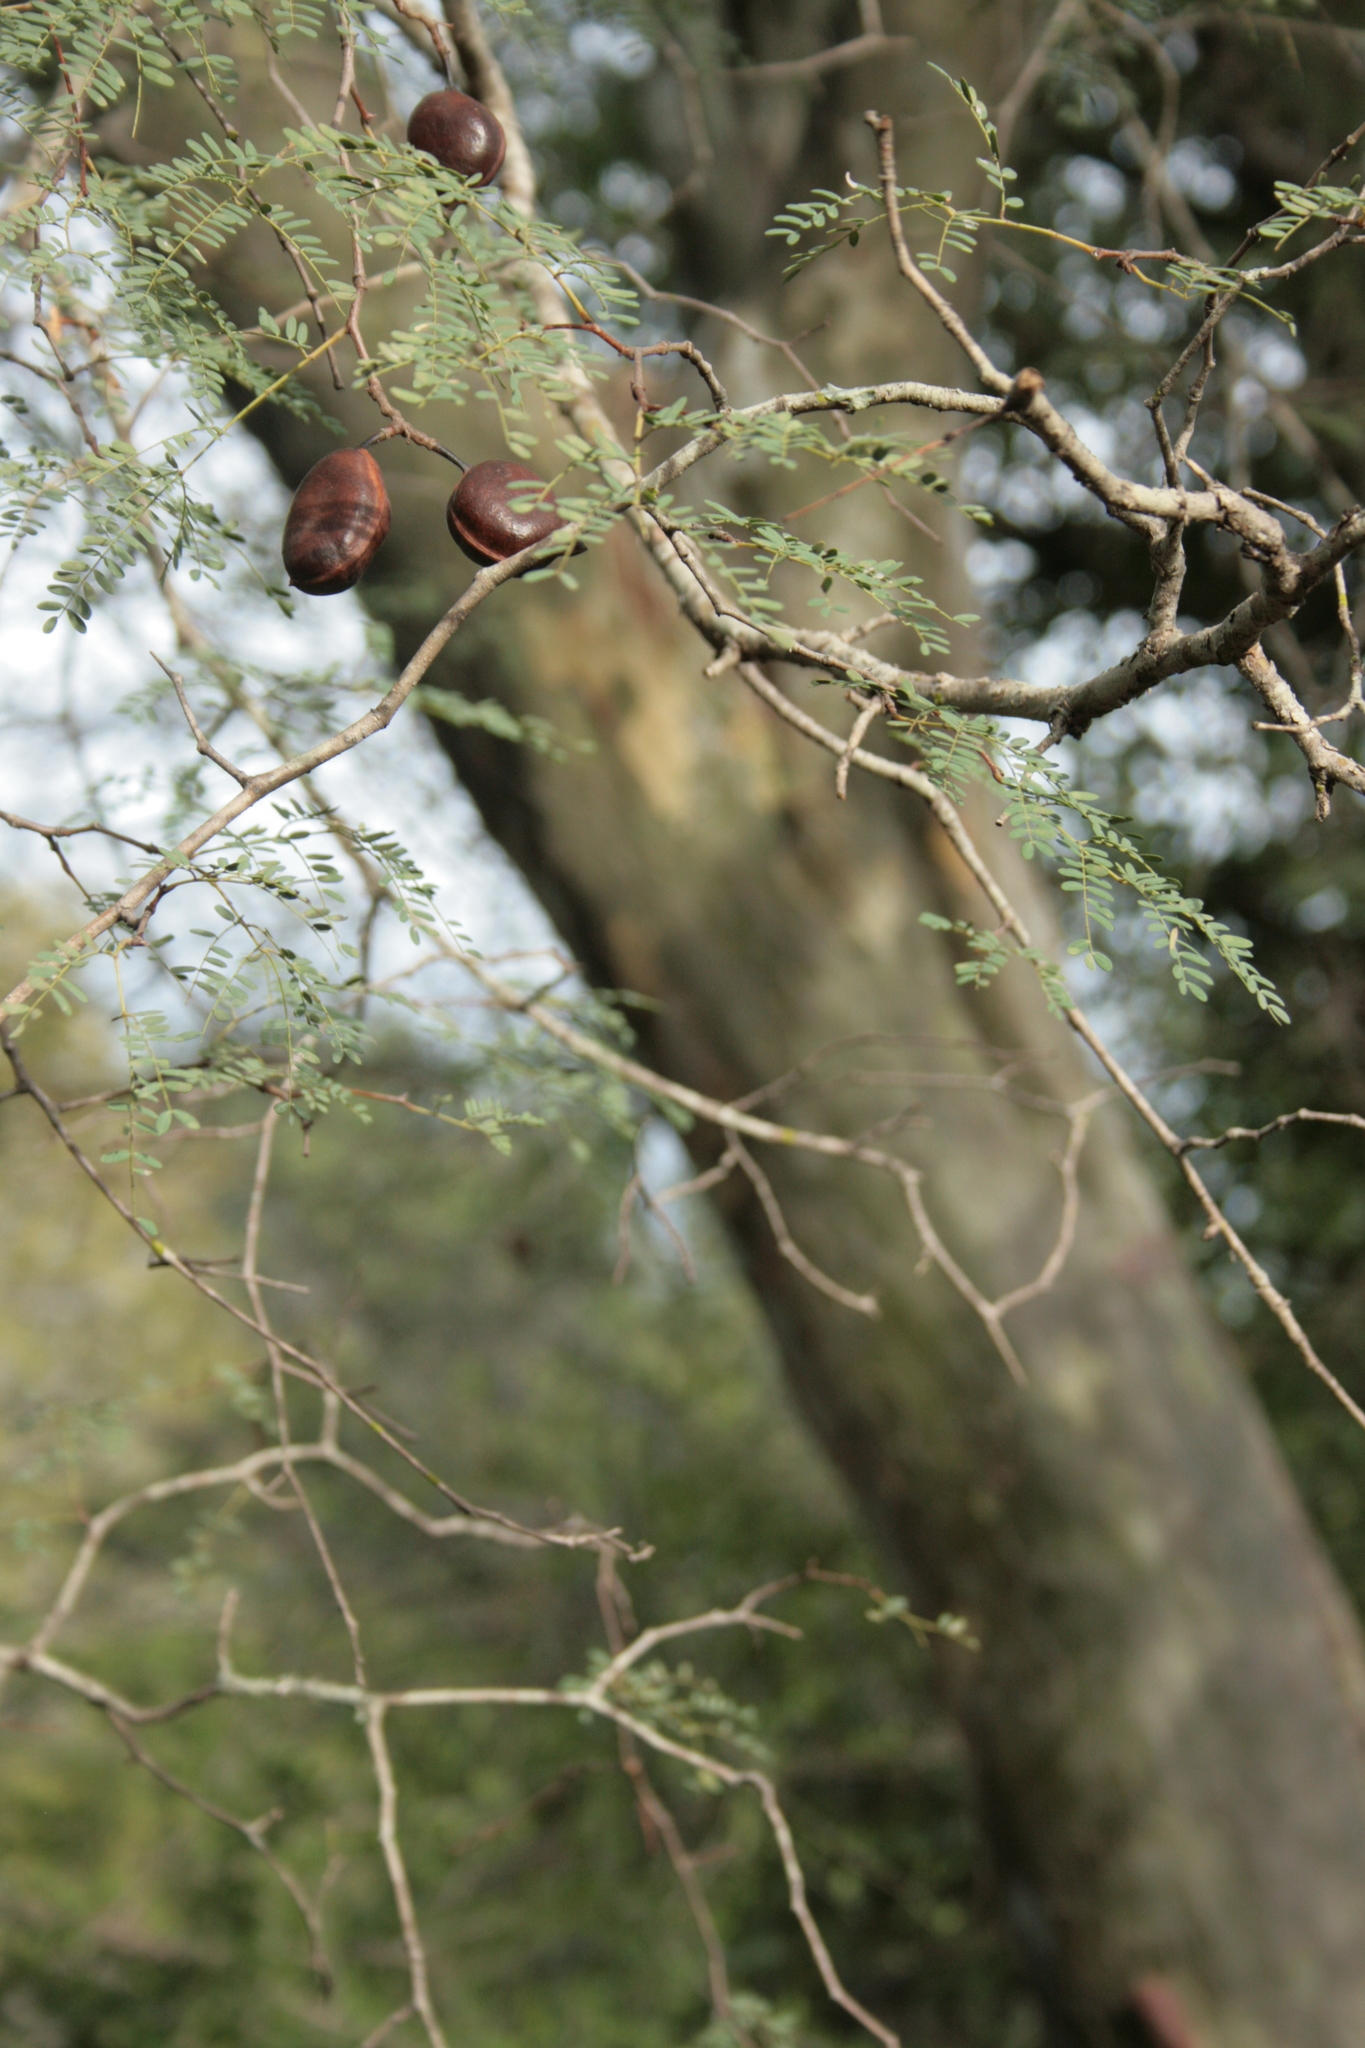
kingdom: Plantae
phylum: Tracheophyta
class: Magnoliopsida
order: Fabales
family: Fabaceae
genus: Libidibia
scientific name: Libidibia paraguariensis
